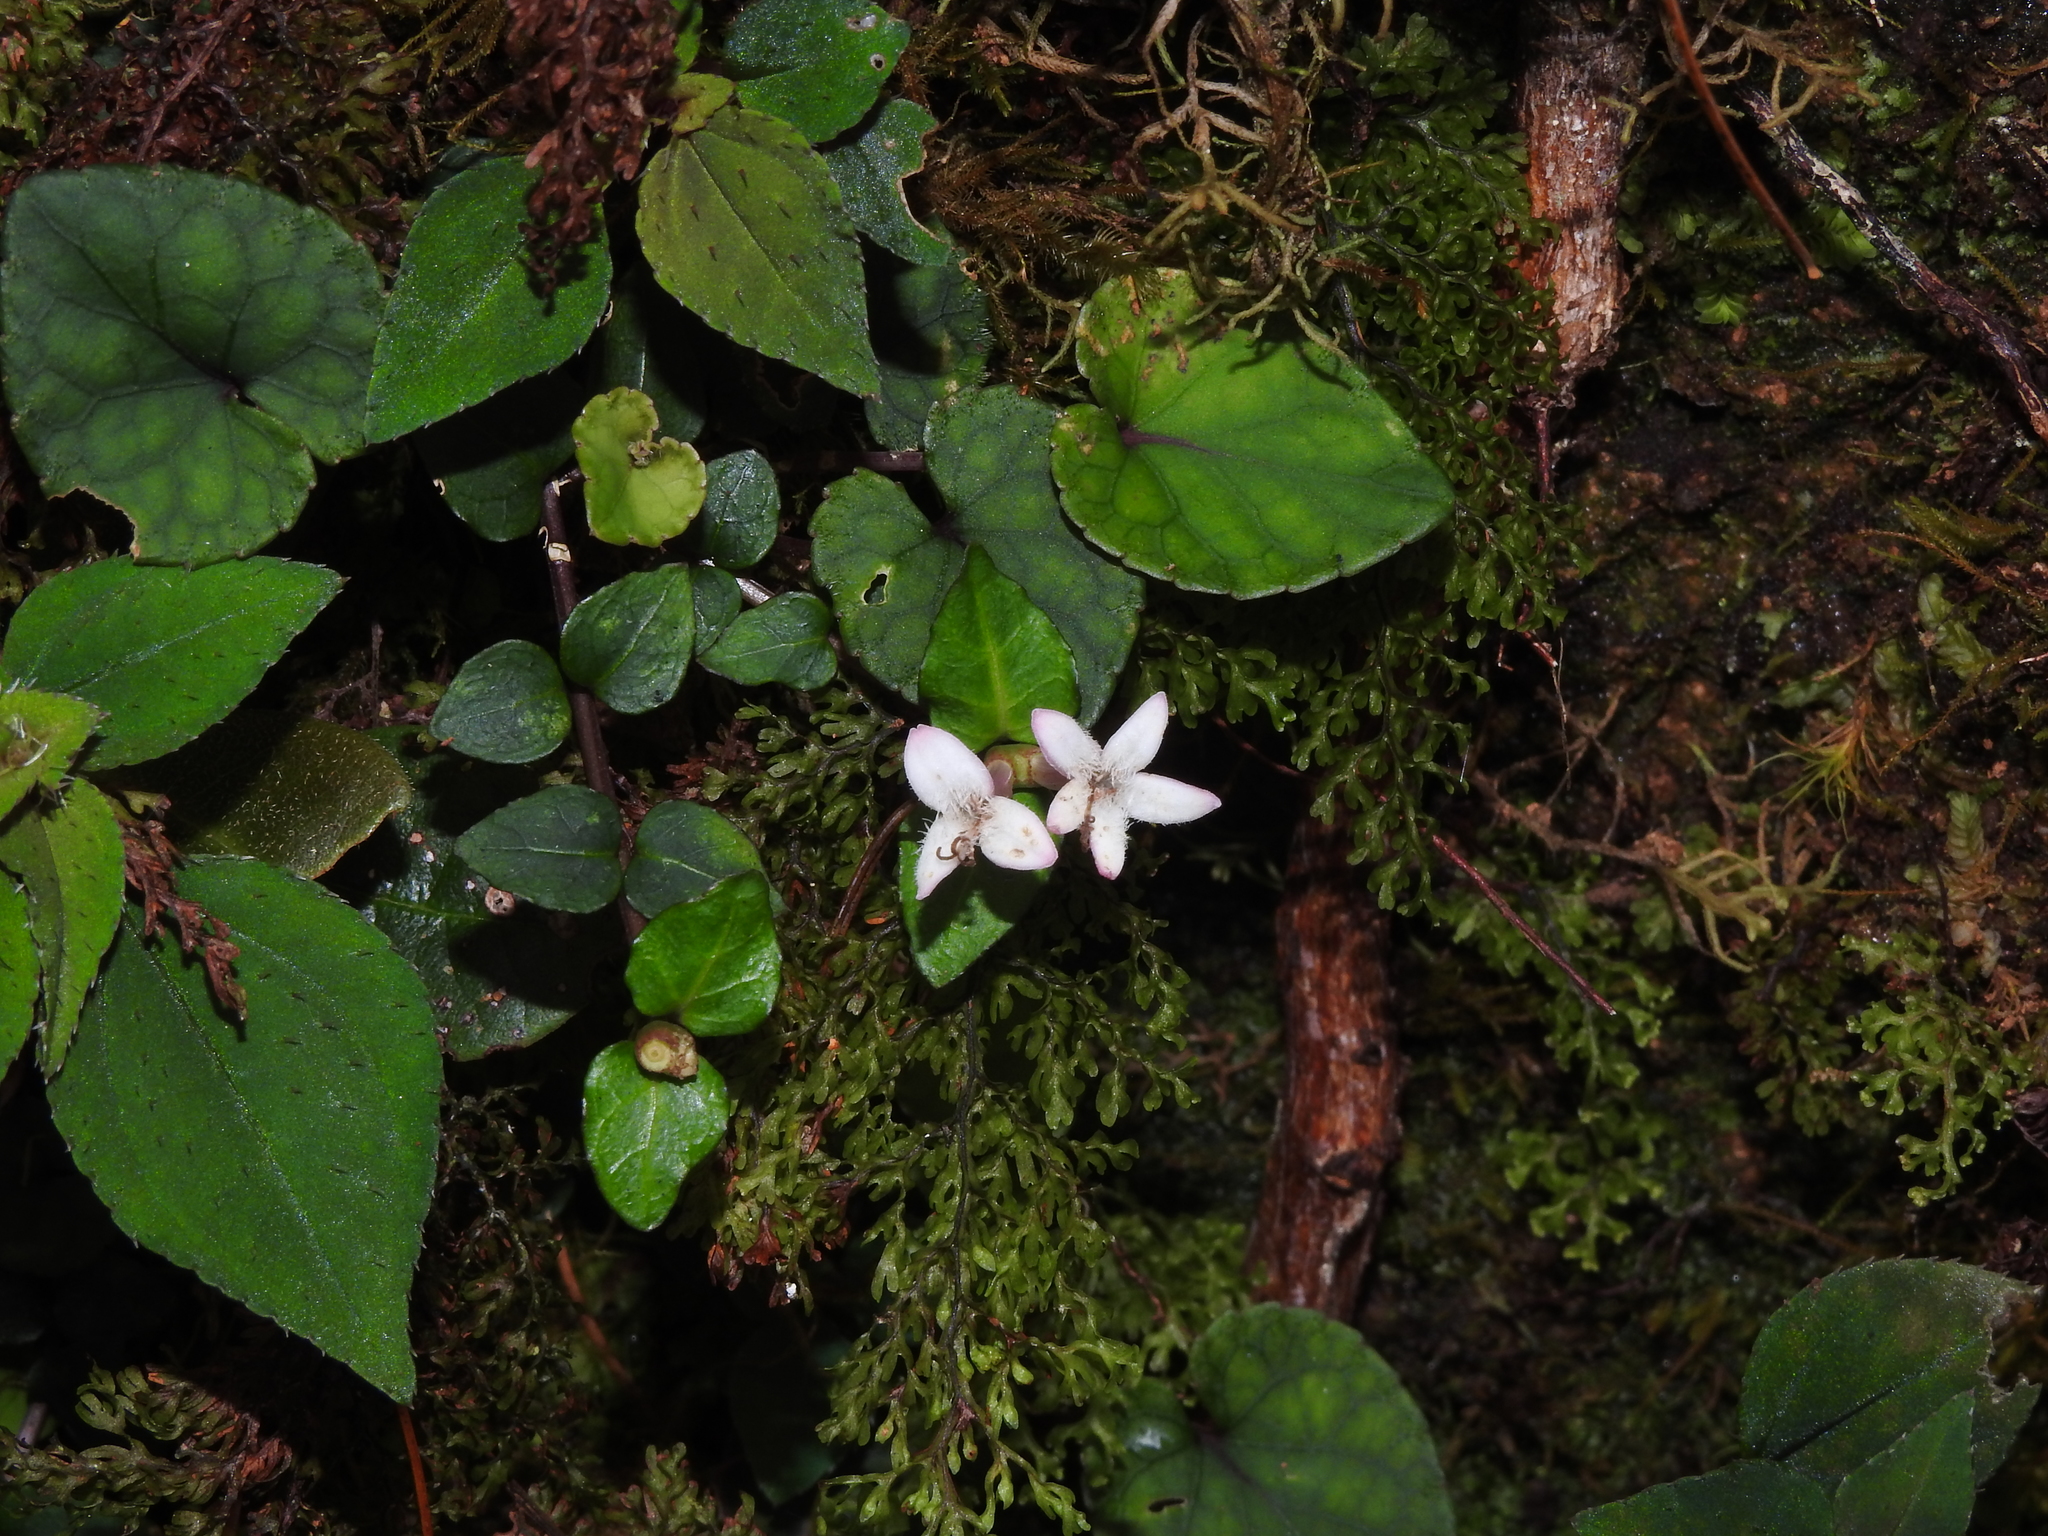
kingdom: Plantae
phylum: Tracheophyta
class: Magnoliopsida
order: Gentianales
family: Rubiaceae
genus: Mitchella
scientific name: Mitchella undulata
